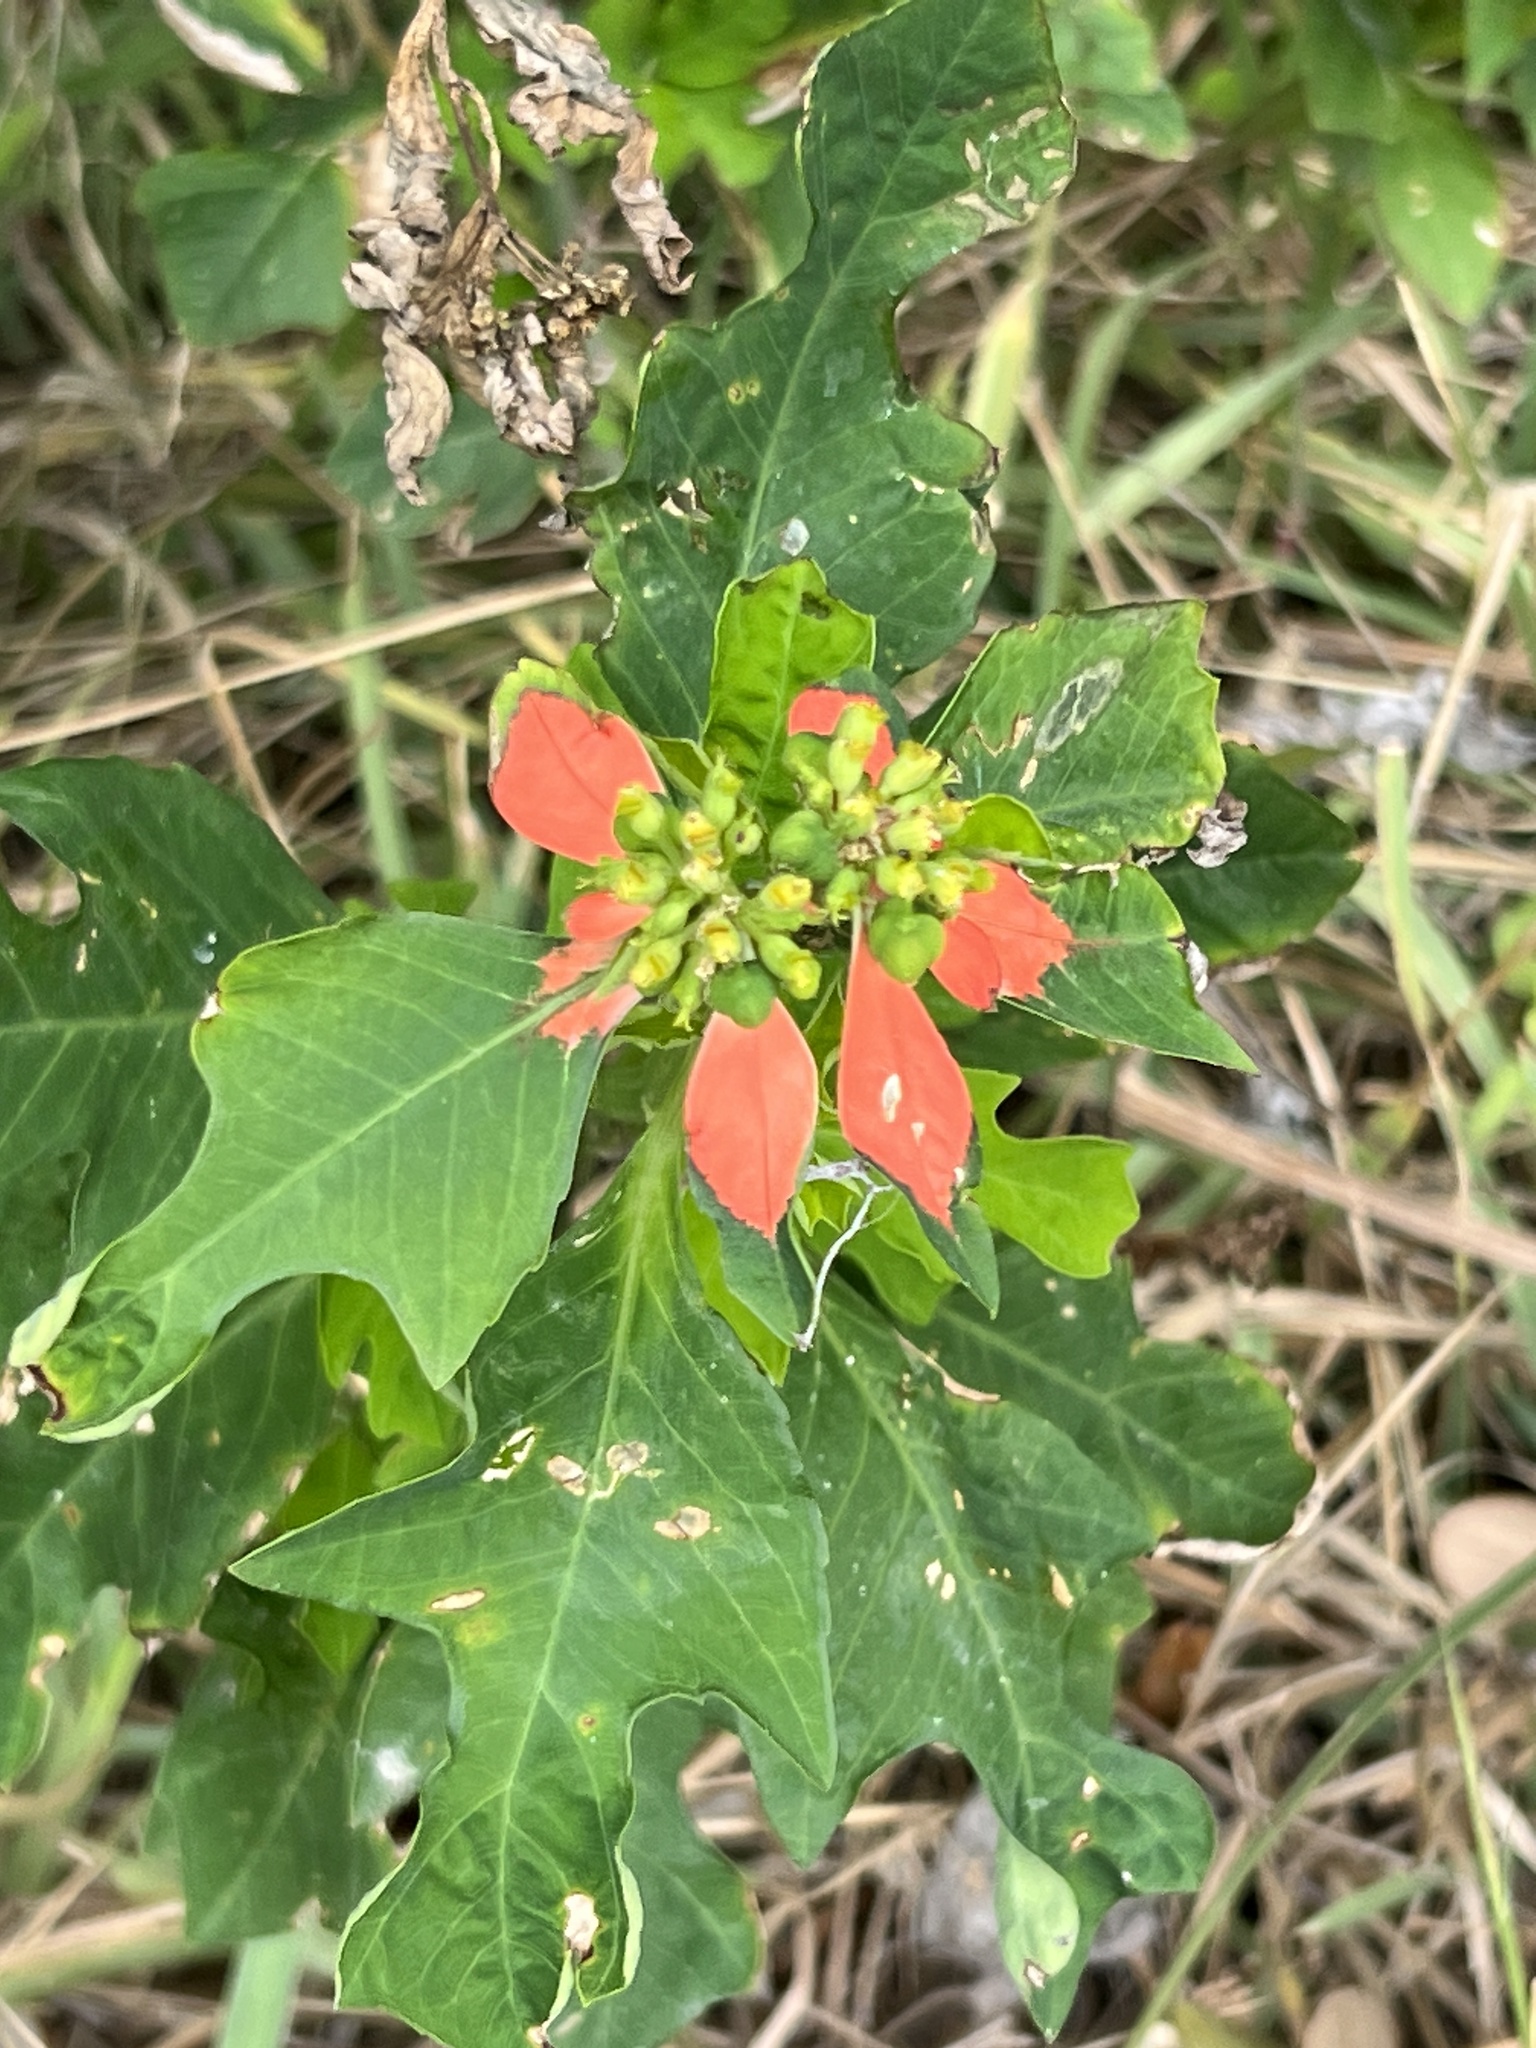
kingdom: Plantae
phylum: Tracheophyta
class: Magnoliopsida
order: Malpighiales
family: Euphorbiaceae
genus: Euphorbia
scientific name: Euphorbia heterophylla
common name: Mexican fireplant
